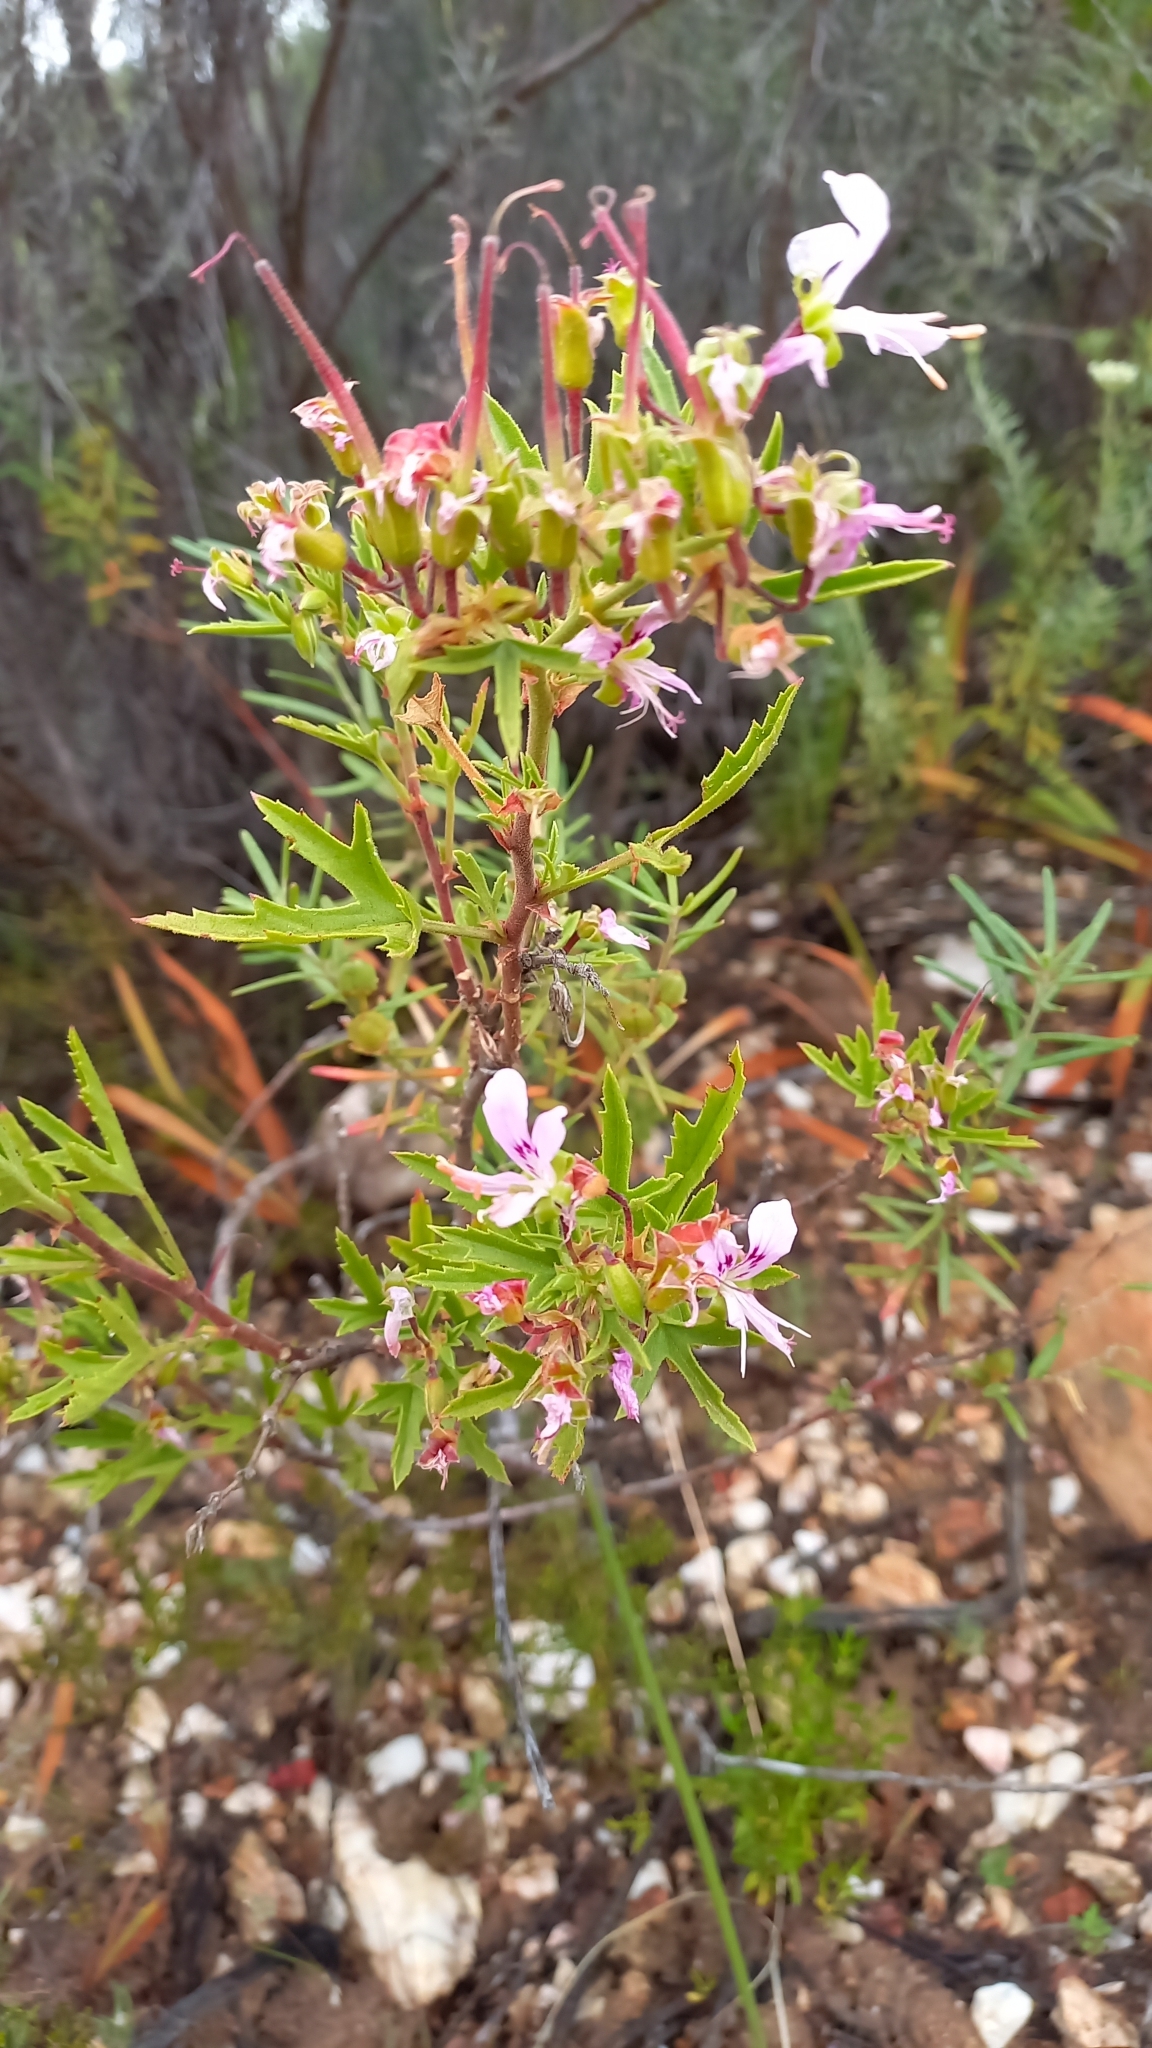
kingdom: Plantae
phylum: Tracheophyta
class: Magnoliopsida
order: Geraniales
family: Geraniaceae
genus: Pelargonium
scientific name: Pelargonium scabrum
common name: Apricot geranium
